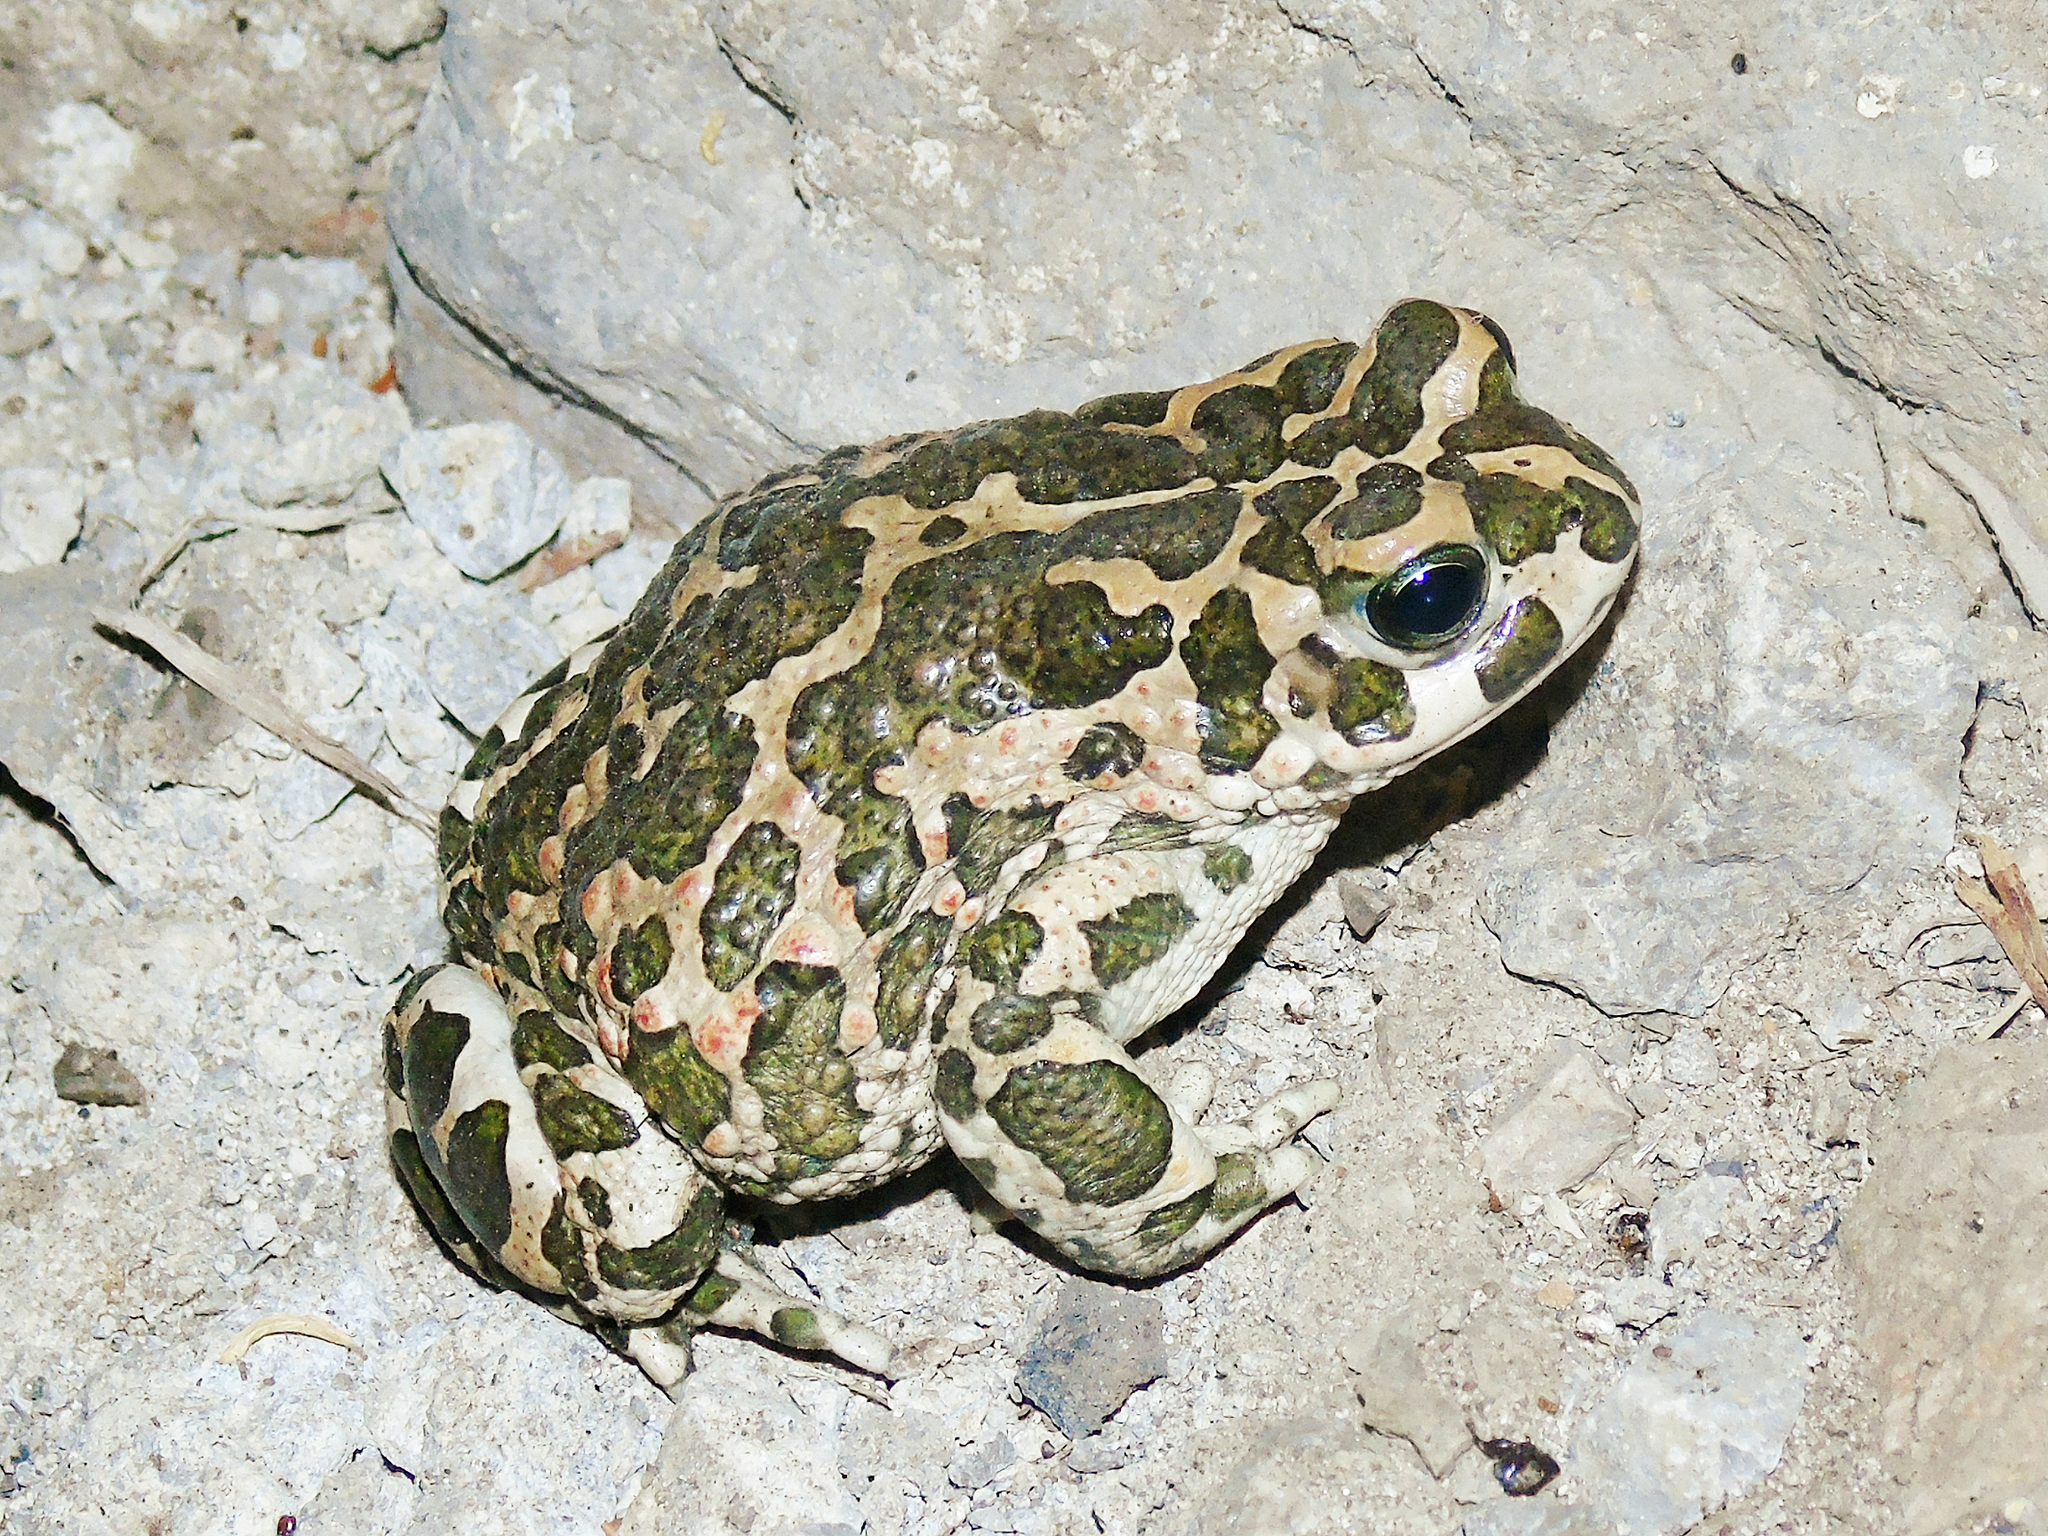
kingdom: Animalia
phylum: Chordata
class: Amphibia
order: Anura
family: Bufonidae
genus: Bufotes
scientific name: Bufotes viridis
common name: European green toad
